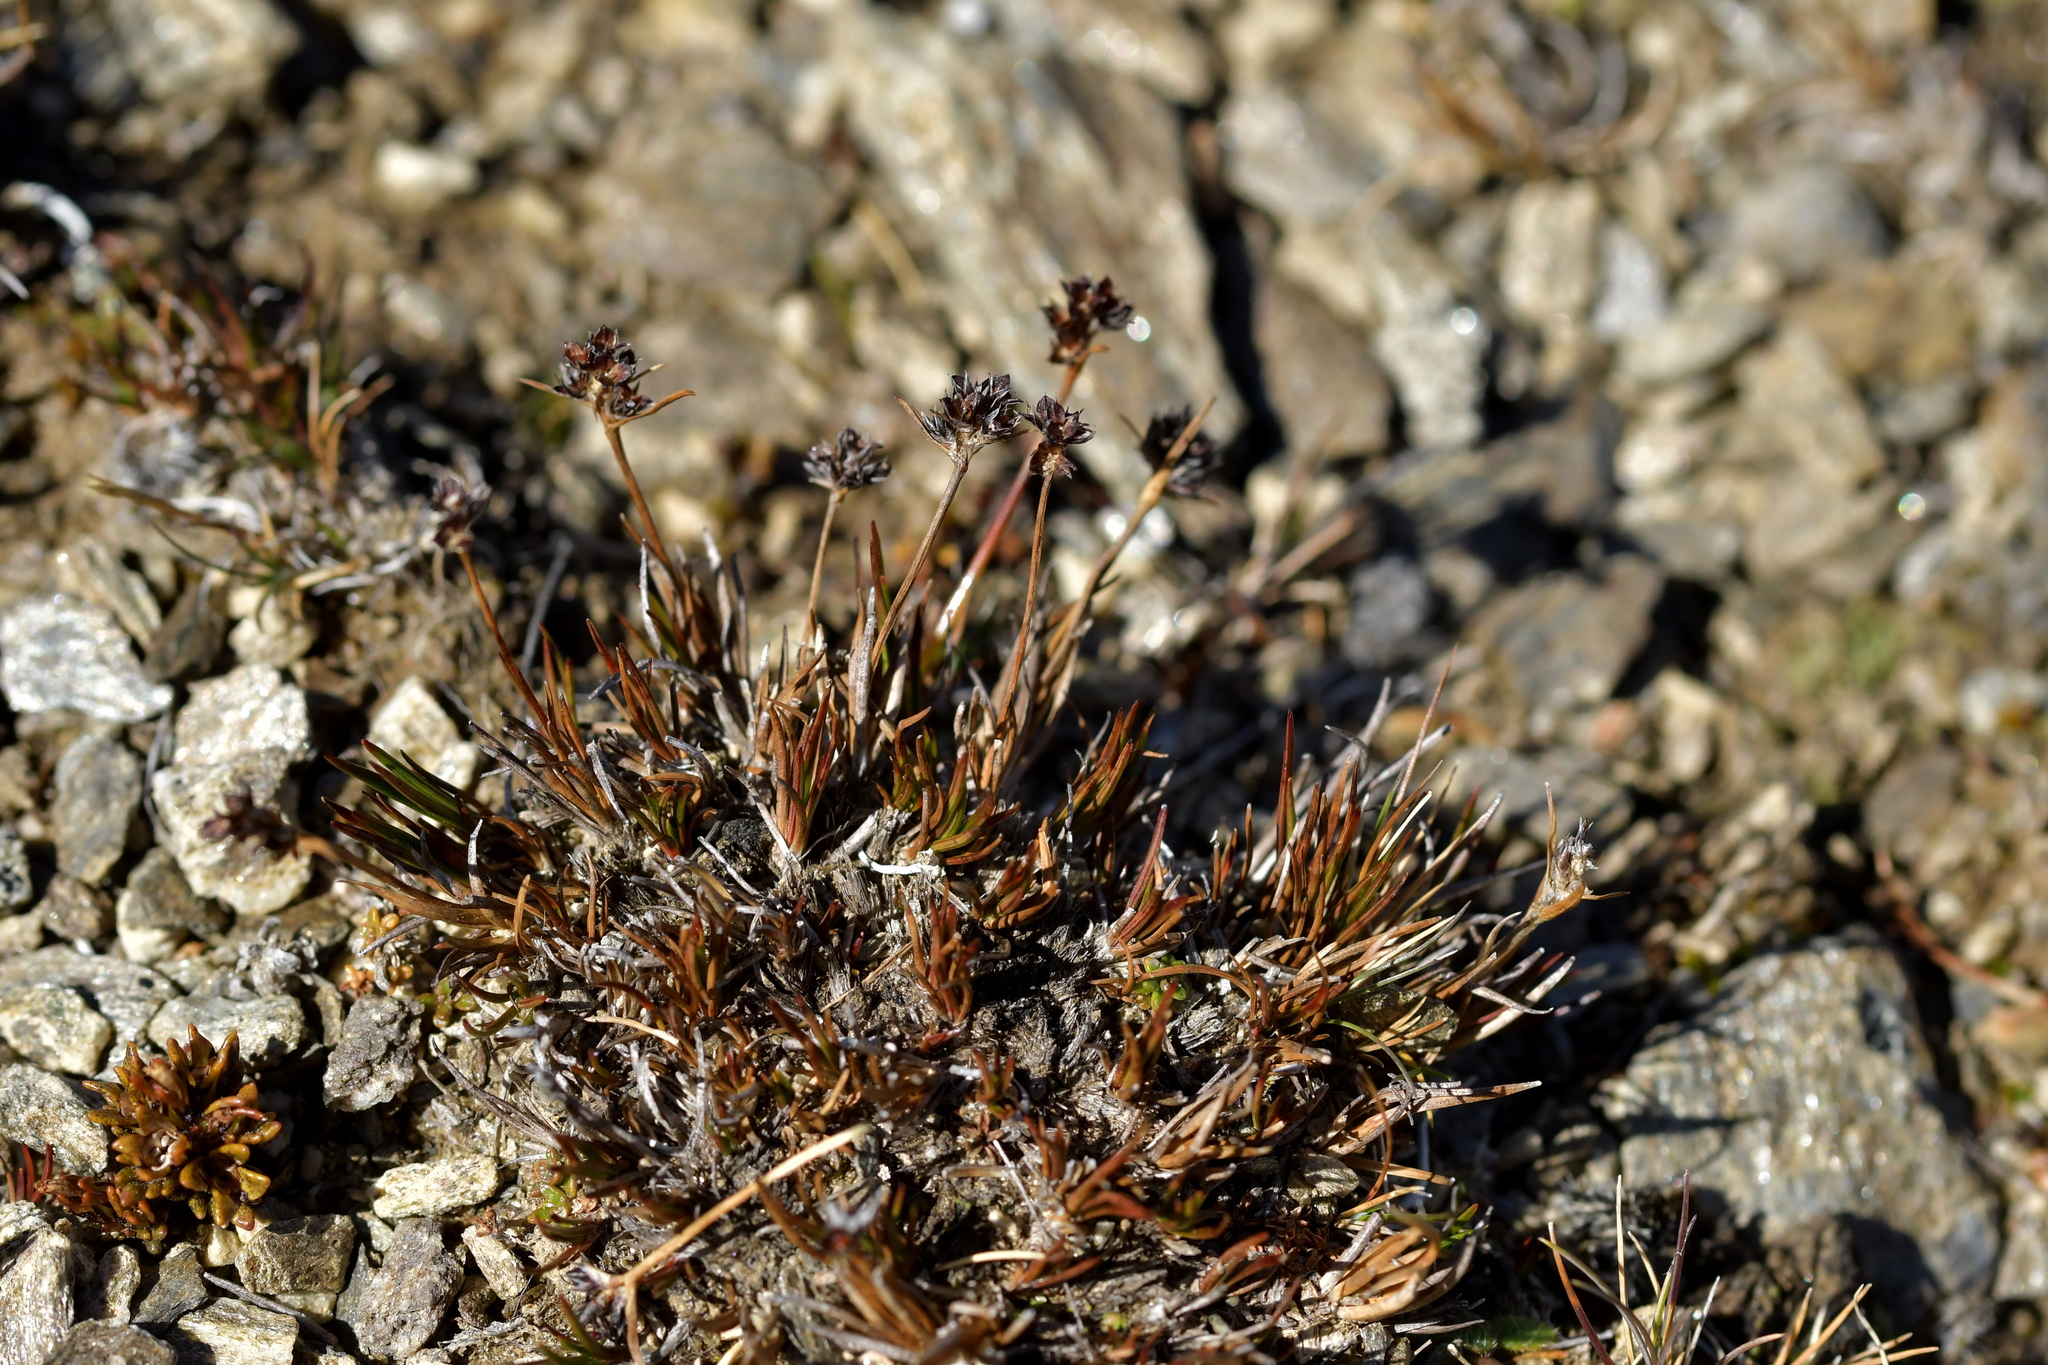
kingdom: Plantae
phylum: Tracheophyta
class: Liliopsida
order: Poales
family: Juncaceae
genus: Luzula
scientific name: Luzula pumila
